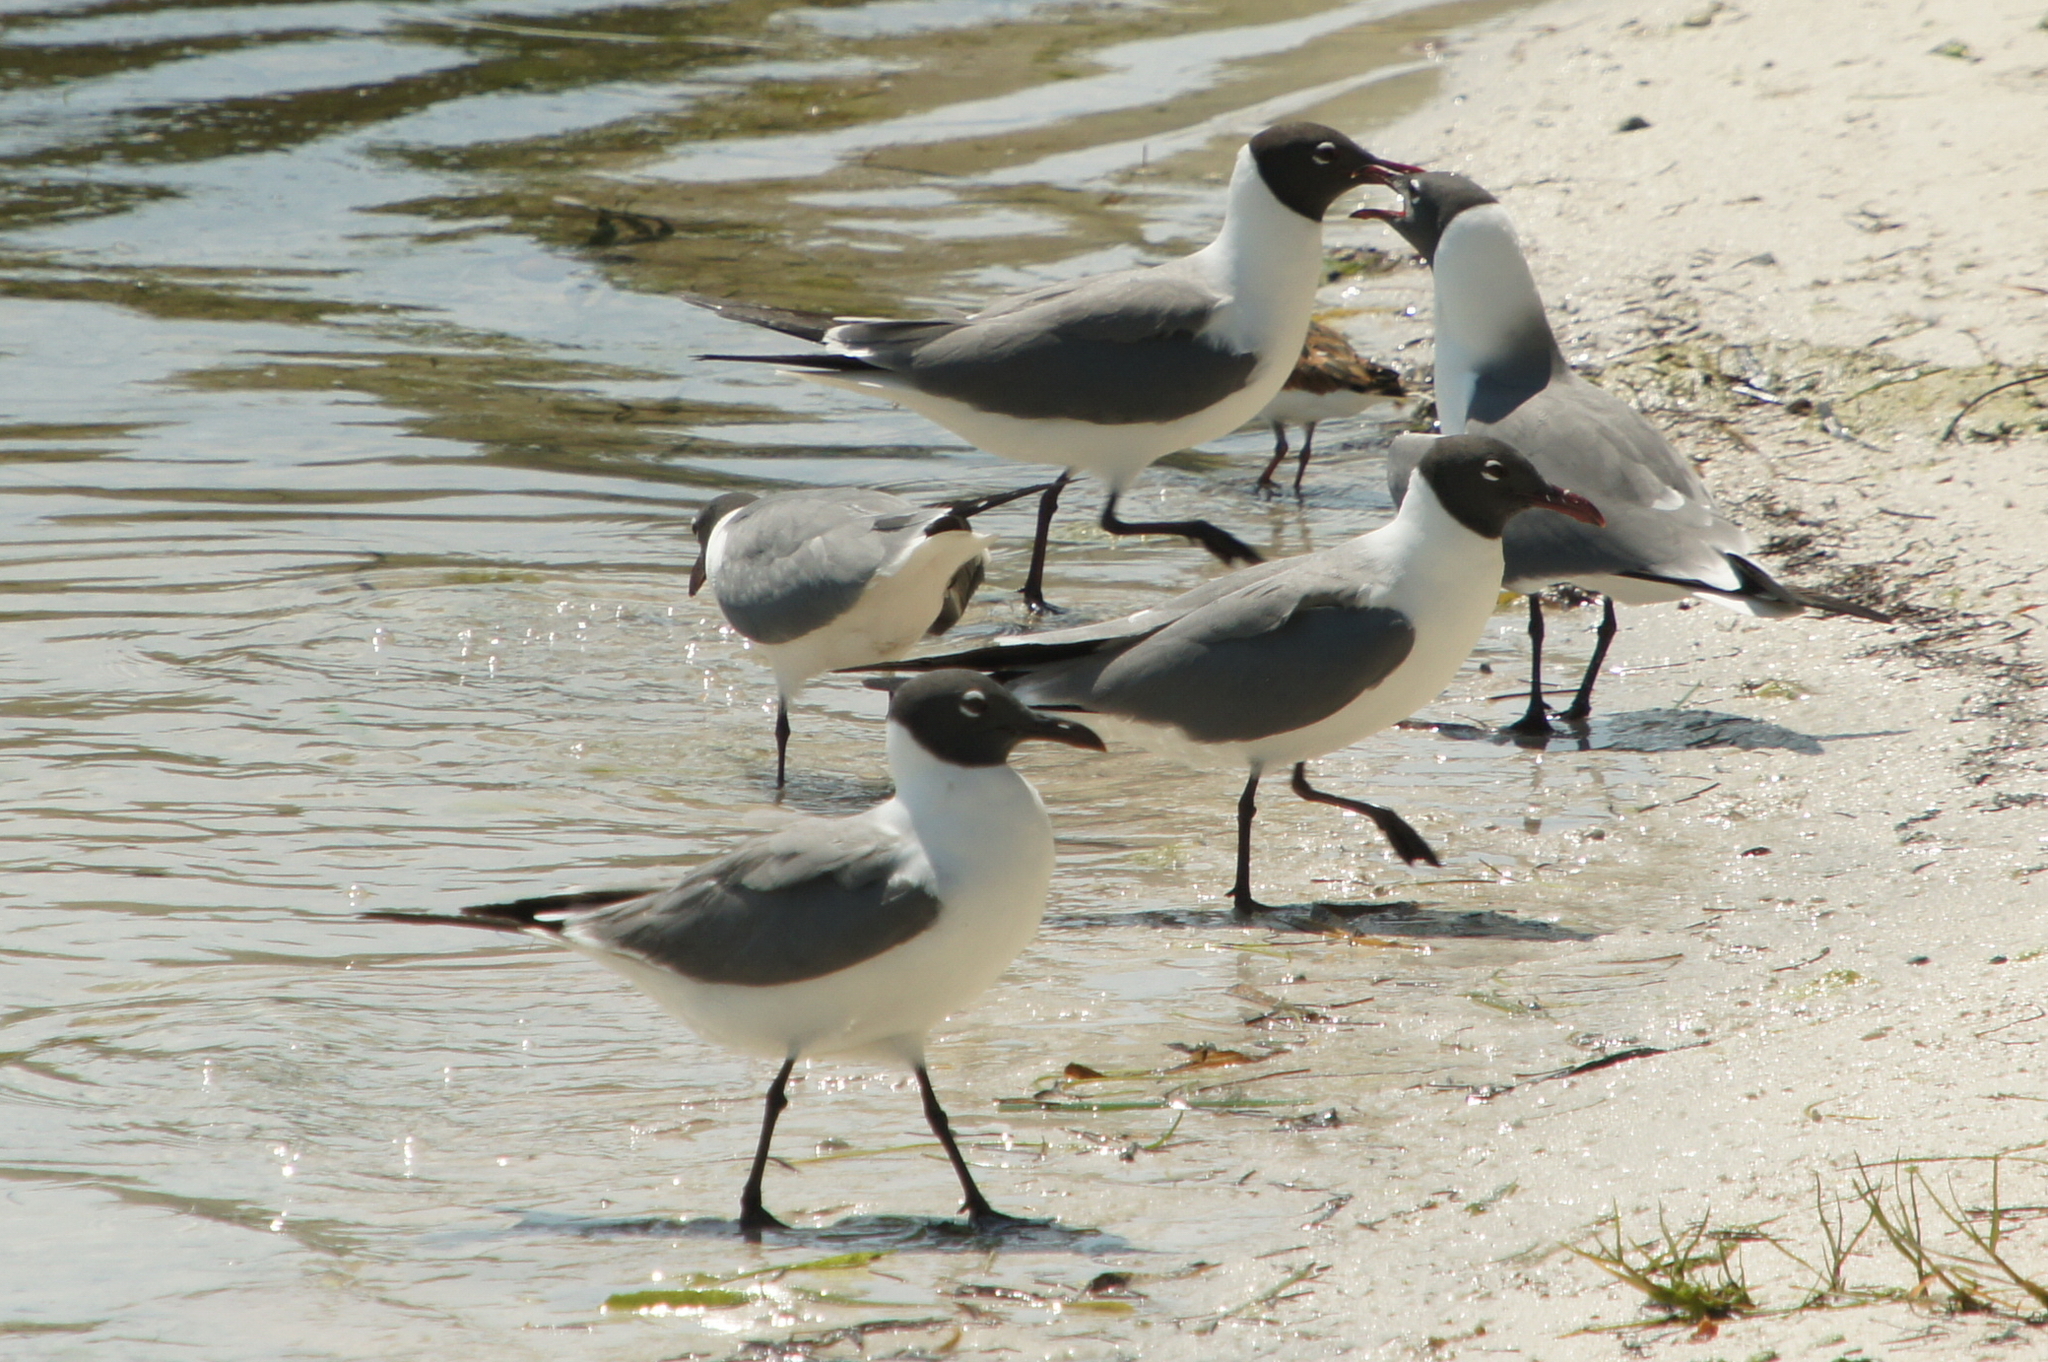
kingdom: Animalia
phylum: Chordata
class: Aves
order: Charadriiformes
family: Laridae
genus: Leucophaeus
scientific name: Leucophaeus atricilla
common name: Laughing gull
